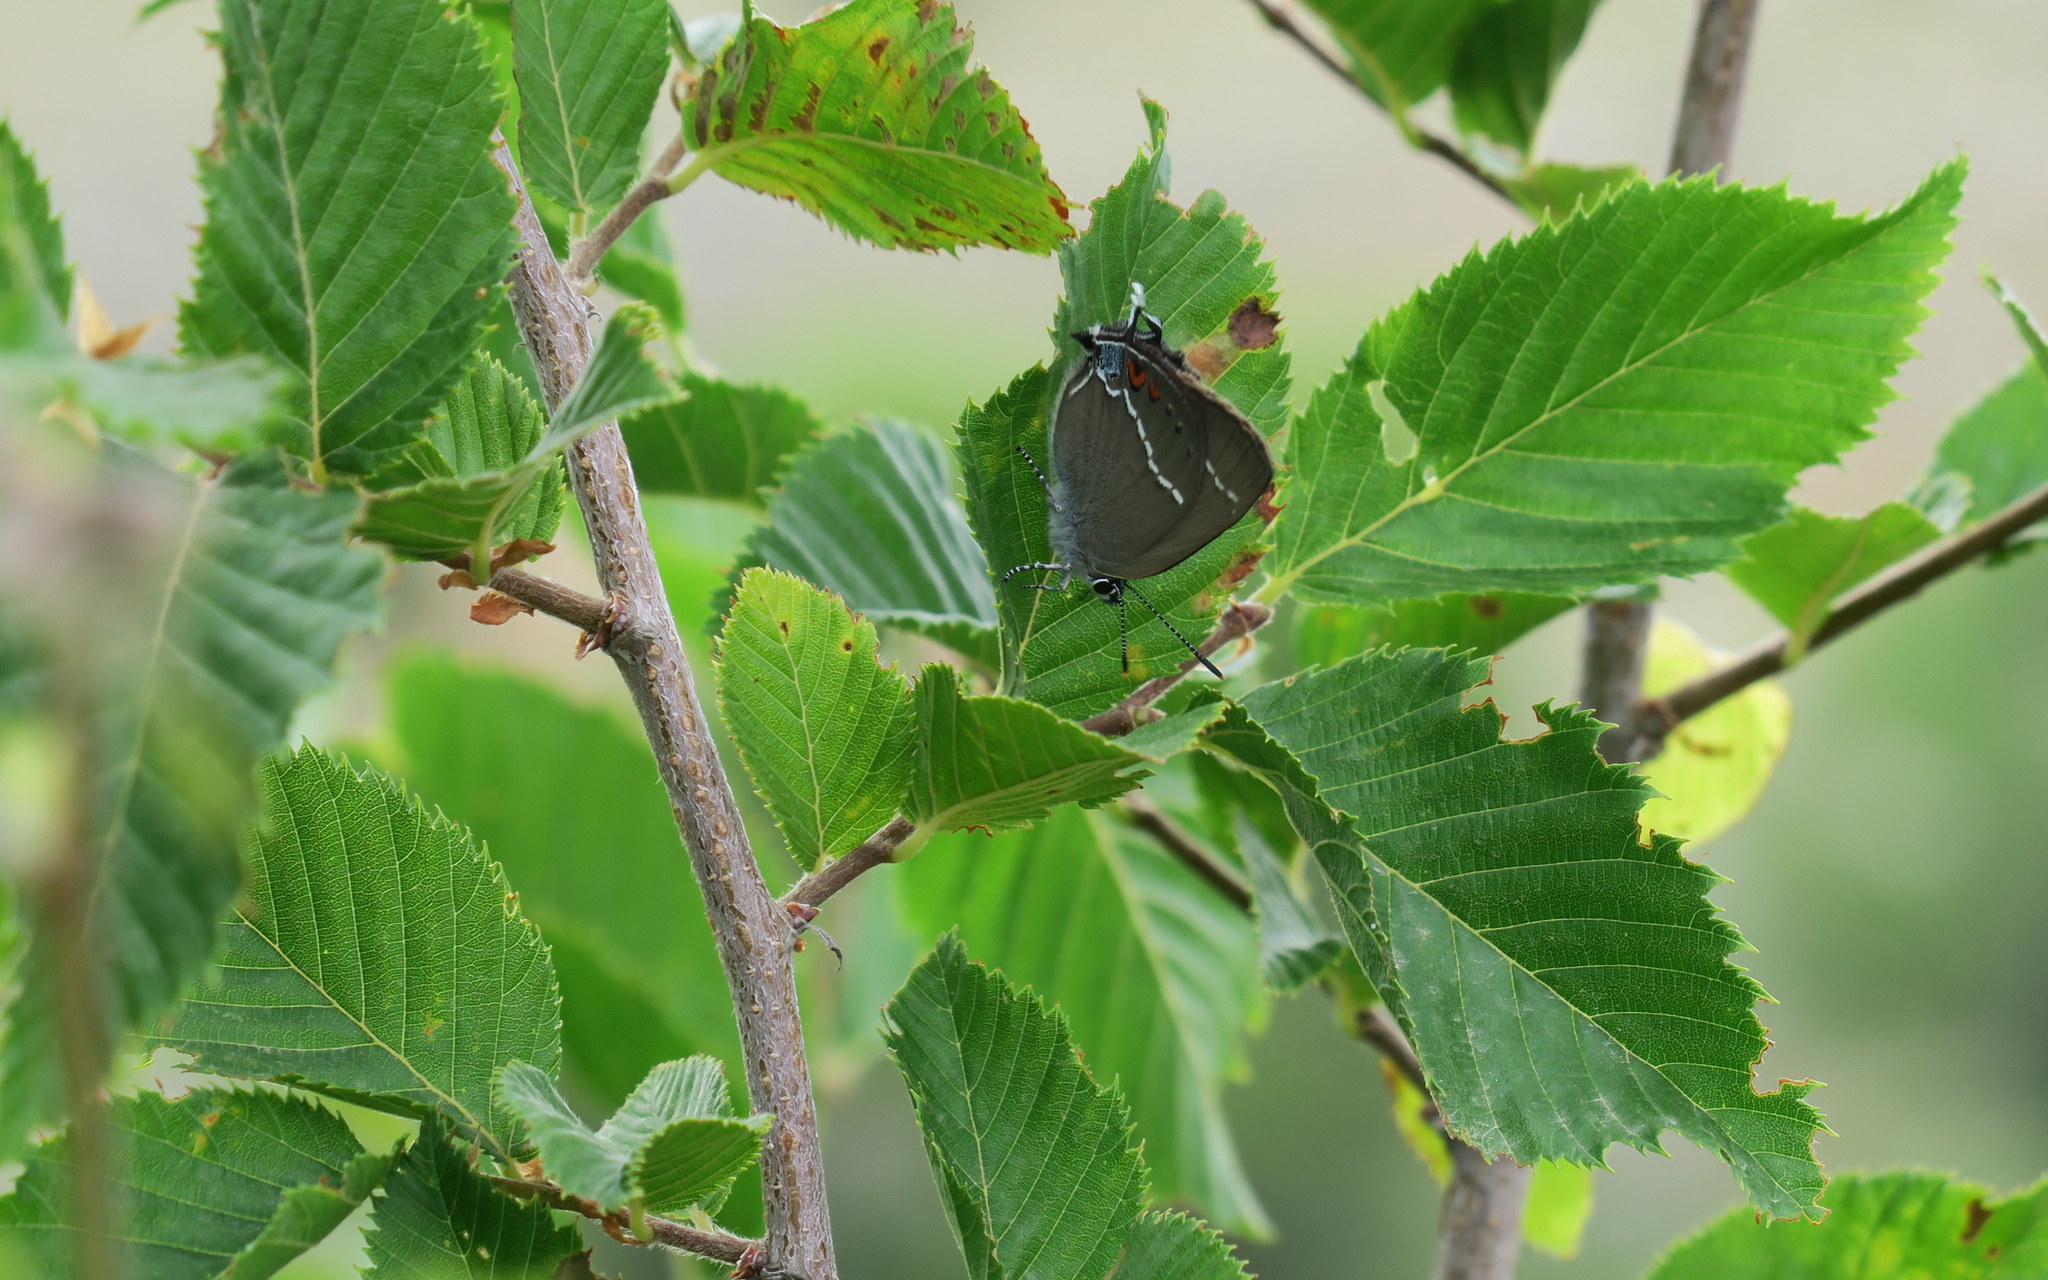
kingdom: Animalia
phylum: Arthropoda
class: Insecta
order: Lepidoptera
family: Lycaenidae
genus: Tuttiola
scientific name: Tuttiola spini
